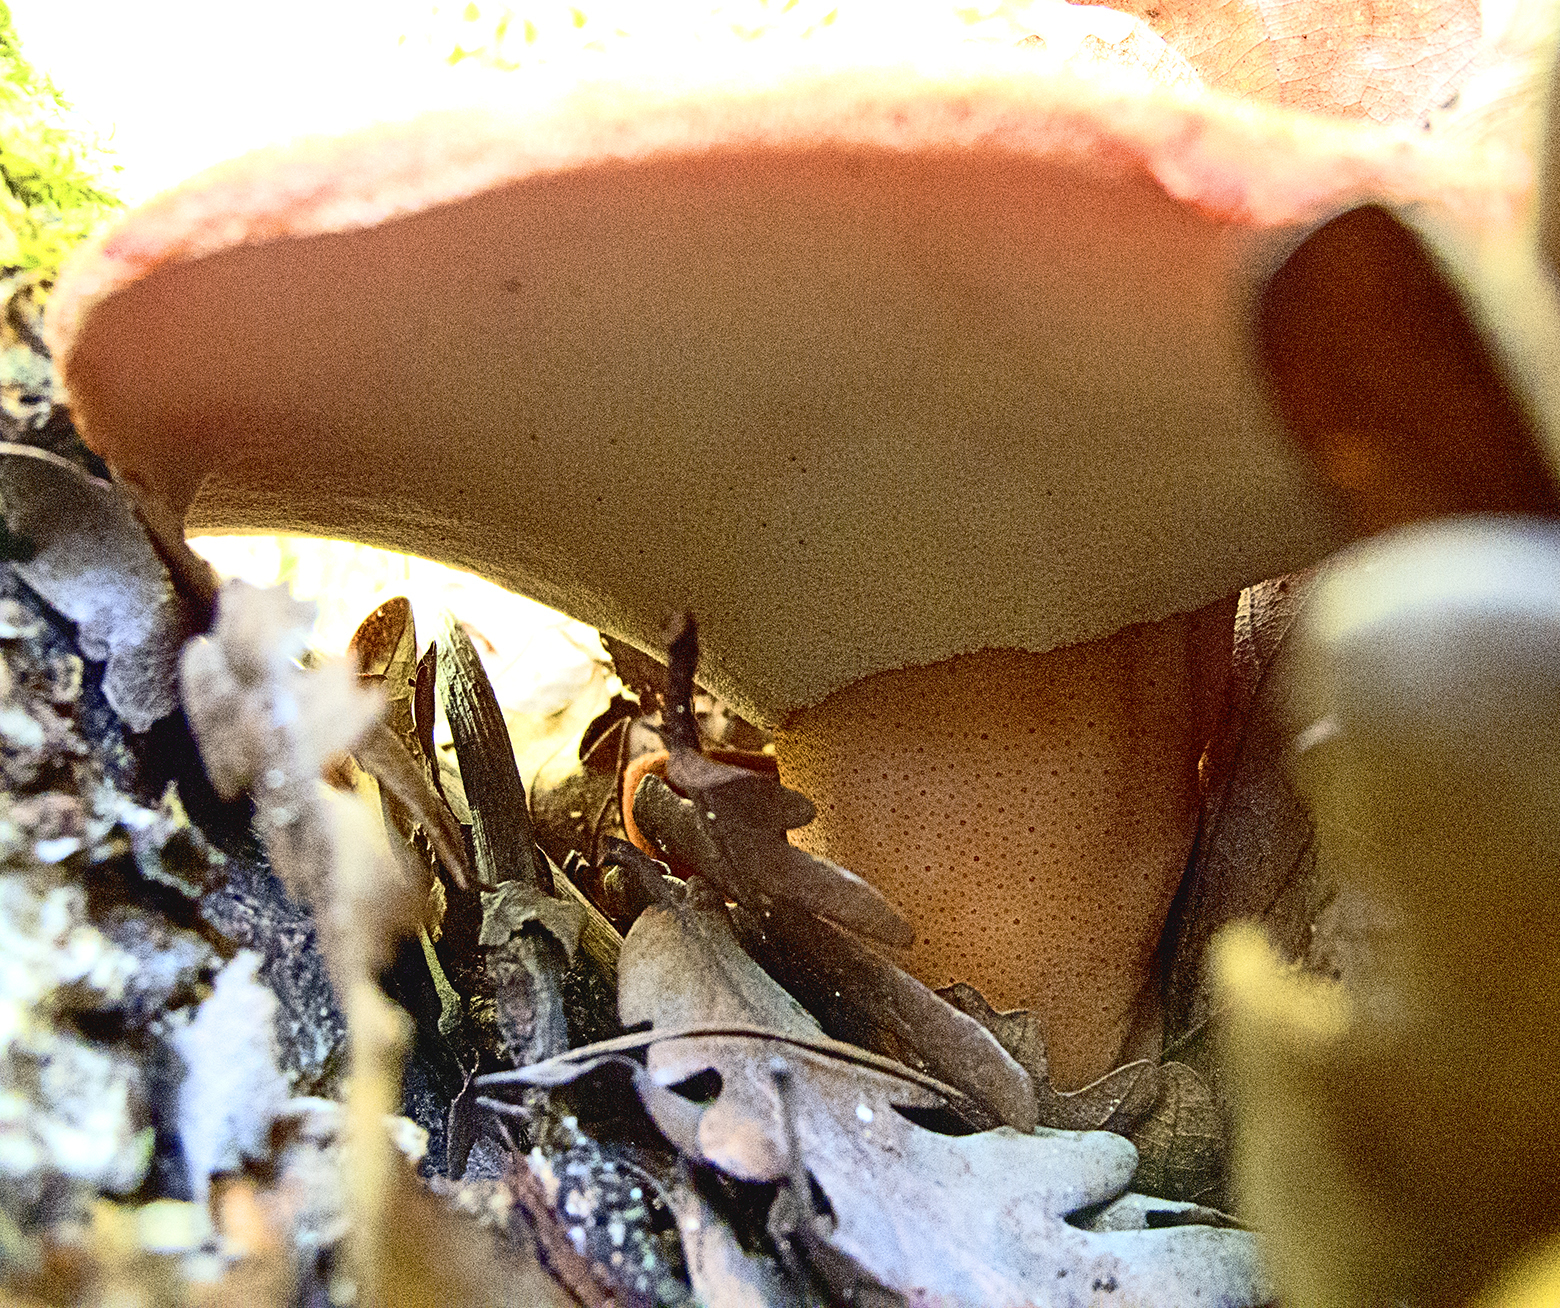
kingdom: Fungi
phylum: Basidiomycota
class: Agaricomycetes
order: Agaricales
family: Fistulinaceae
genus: Fistulina
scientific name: Fistulina hepatica
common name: Beef-steak fungus
